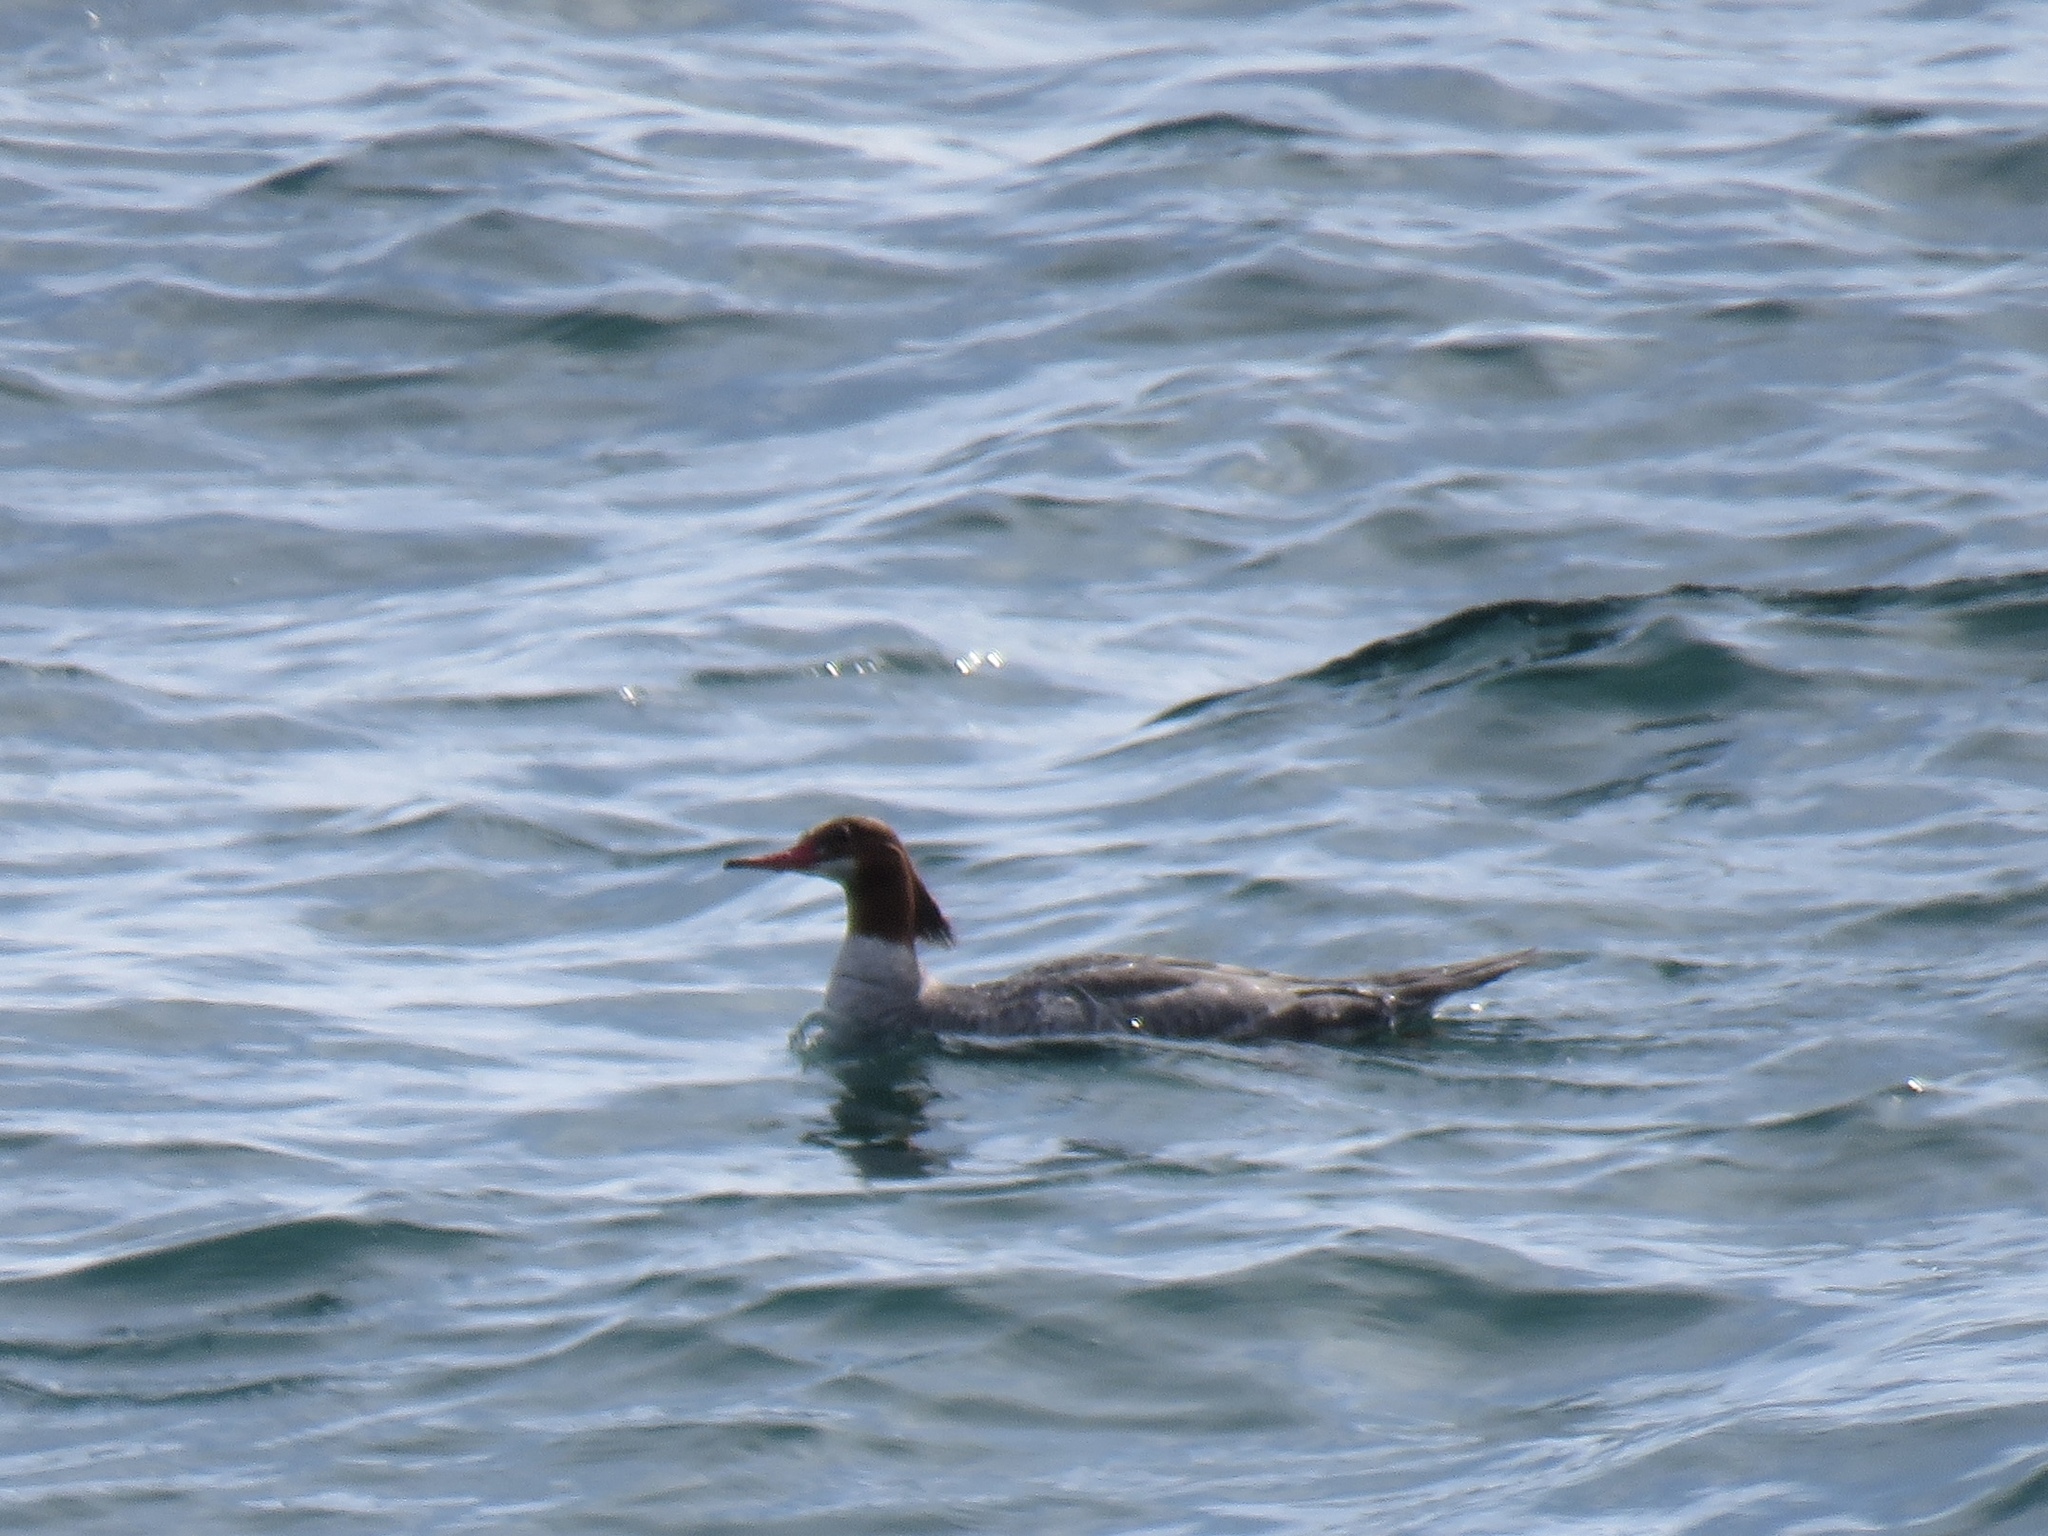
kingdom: Animalia
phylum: Chordata
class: Aves
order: Anseriformes
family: Anatidae
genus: Mergus
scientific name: Mergus merganser
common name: Common merganser
